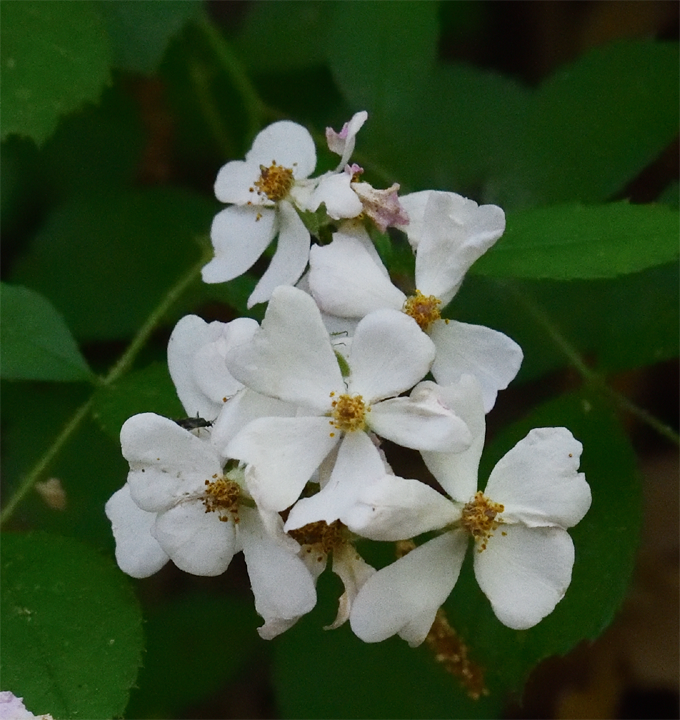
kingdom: Plantae
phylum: Tracheophyta
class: Magnoliopsida
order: Rosales
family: Rosaceae
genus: Rosa
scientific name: Rosa multiflora
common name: Multiflora rose
